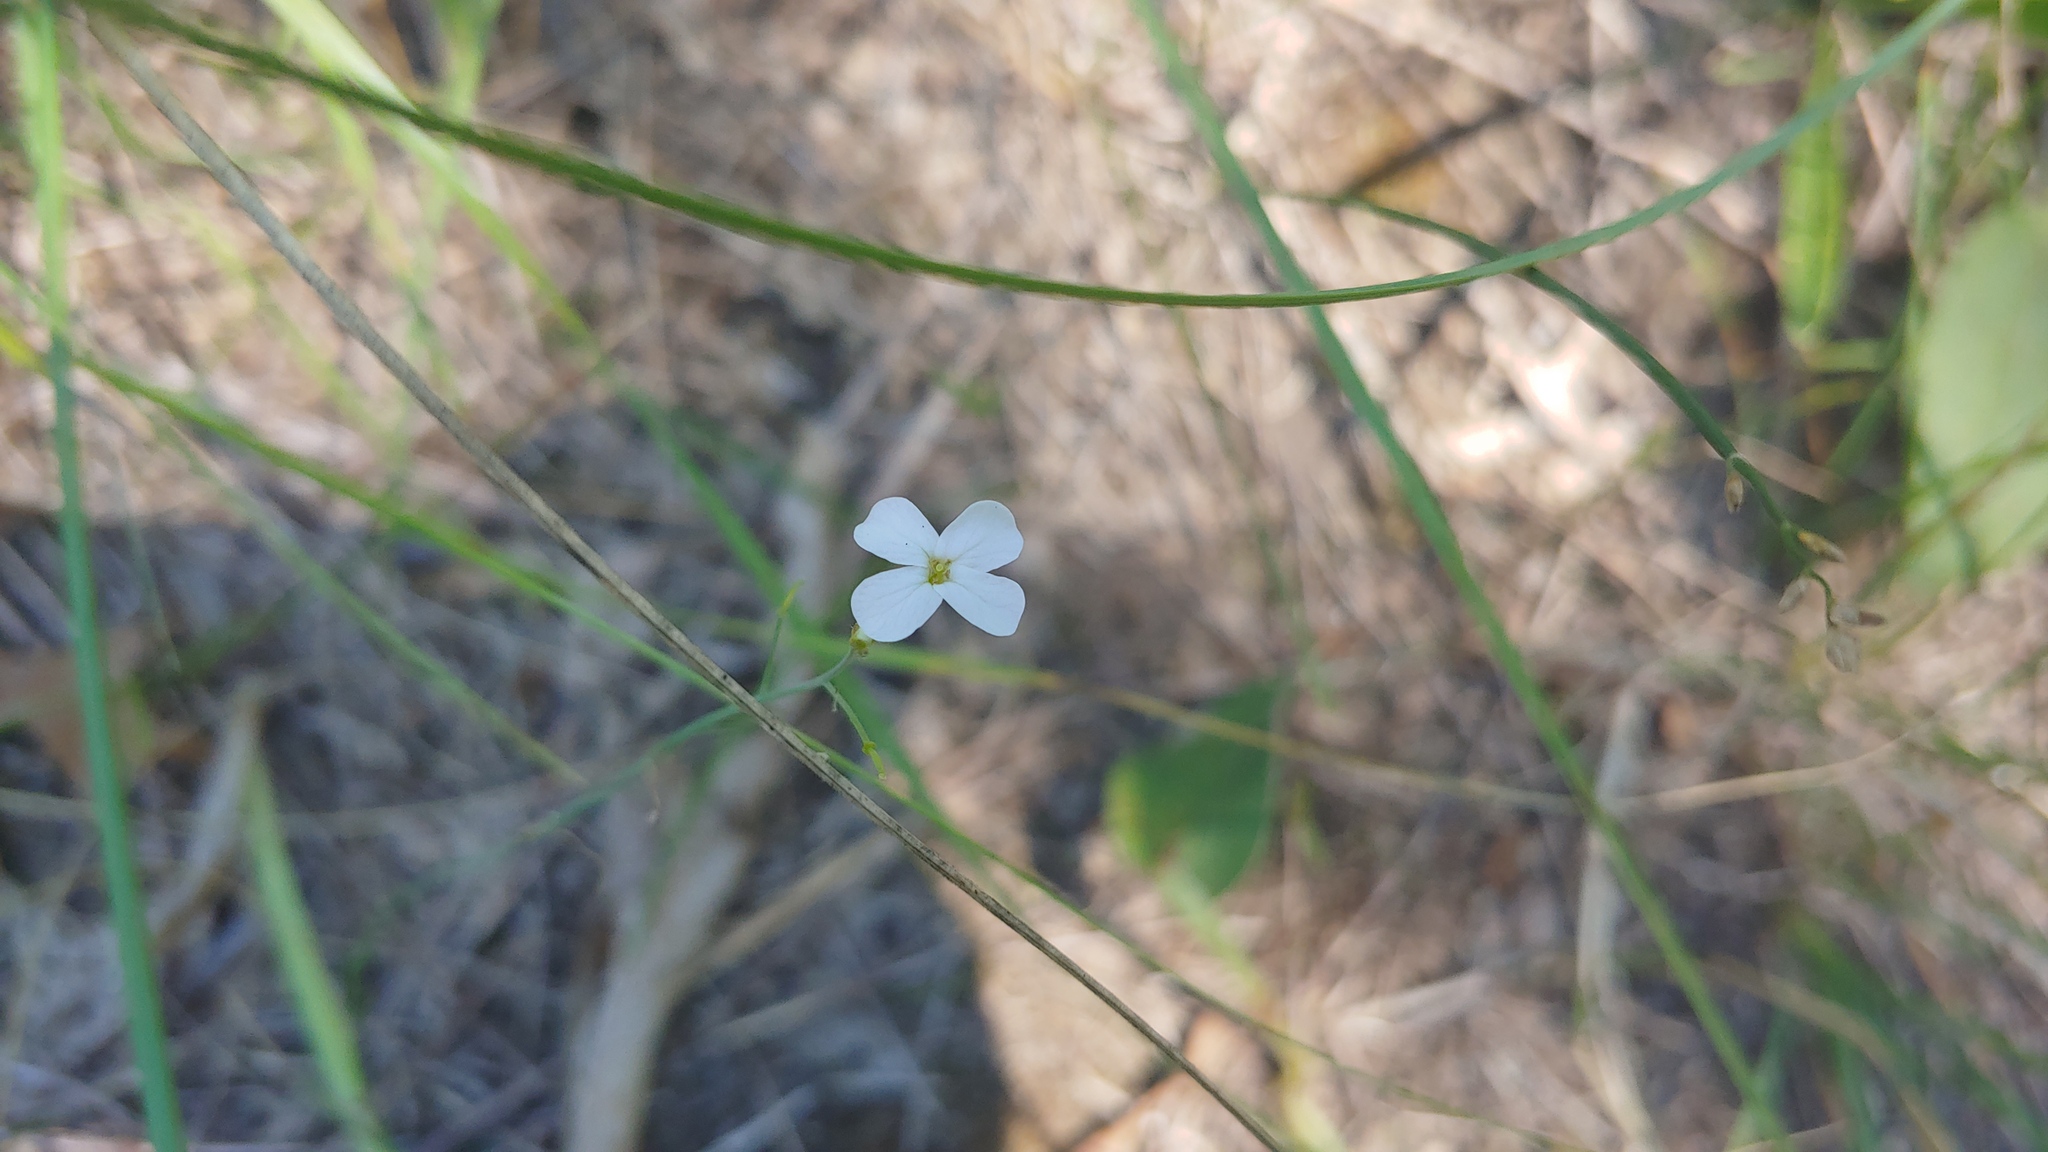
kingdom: Plantae
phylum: Tracheophyta
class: Magnoliopsida
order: Brassicales
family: Brassicaceae
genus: Arabidopsis
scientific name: Arabidopsis lyrata
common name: Lyrate rockcress
